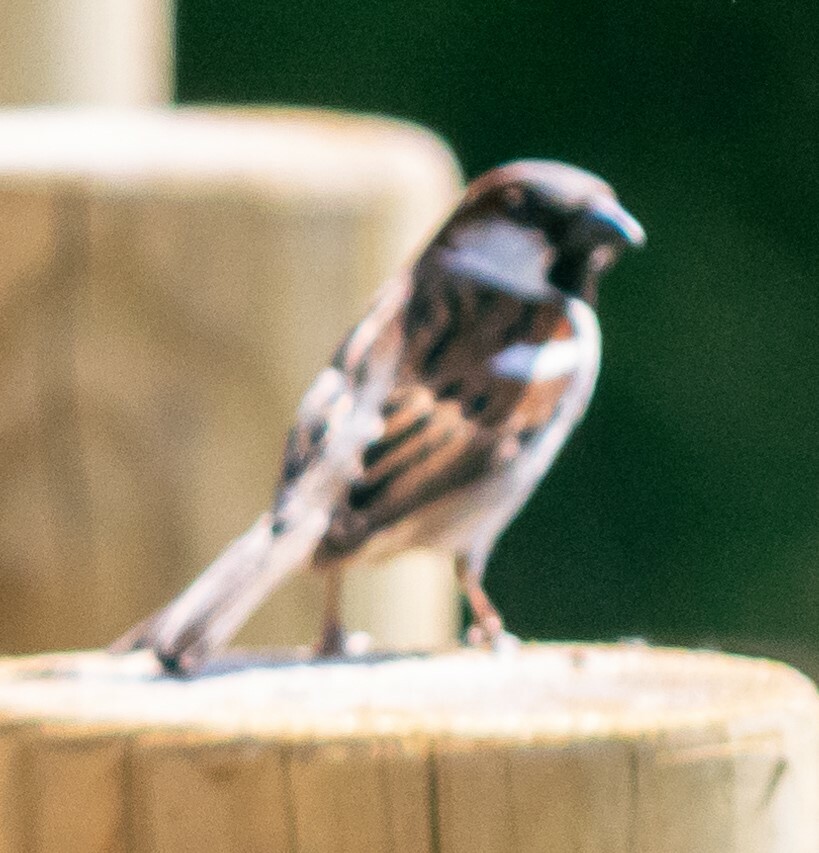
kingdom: Animalia
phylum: Chordata
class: Aves
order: Passeriformes
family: Passeridae
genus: Passer
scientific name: Passer domesticus
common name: House sparrow
